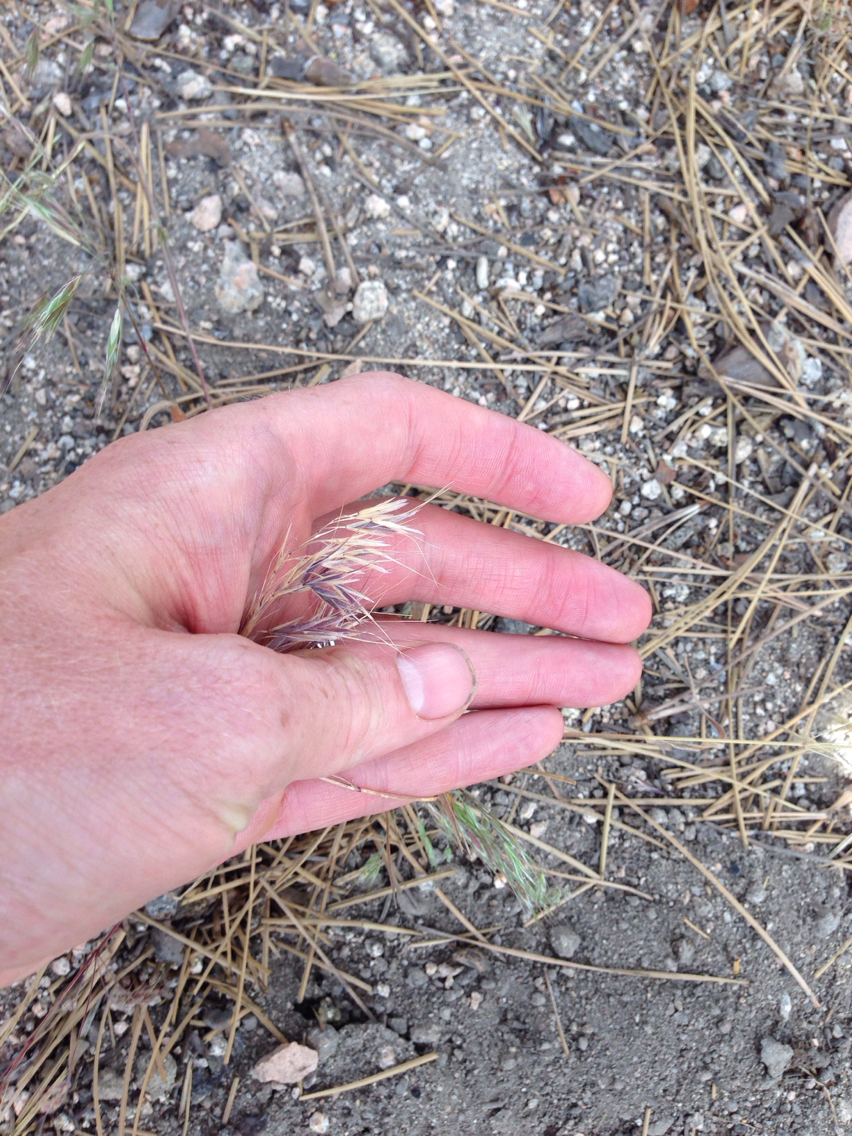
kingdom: Plantae
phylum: Tracheophyta
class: Liliopsida
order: Poales
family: Poaceae
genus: Bromus
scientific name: Bromus tectorum
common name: Cheatgrass
